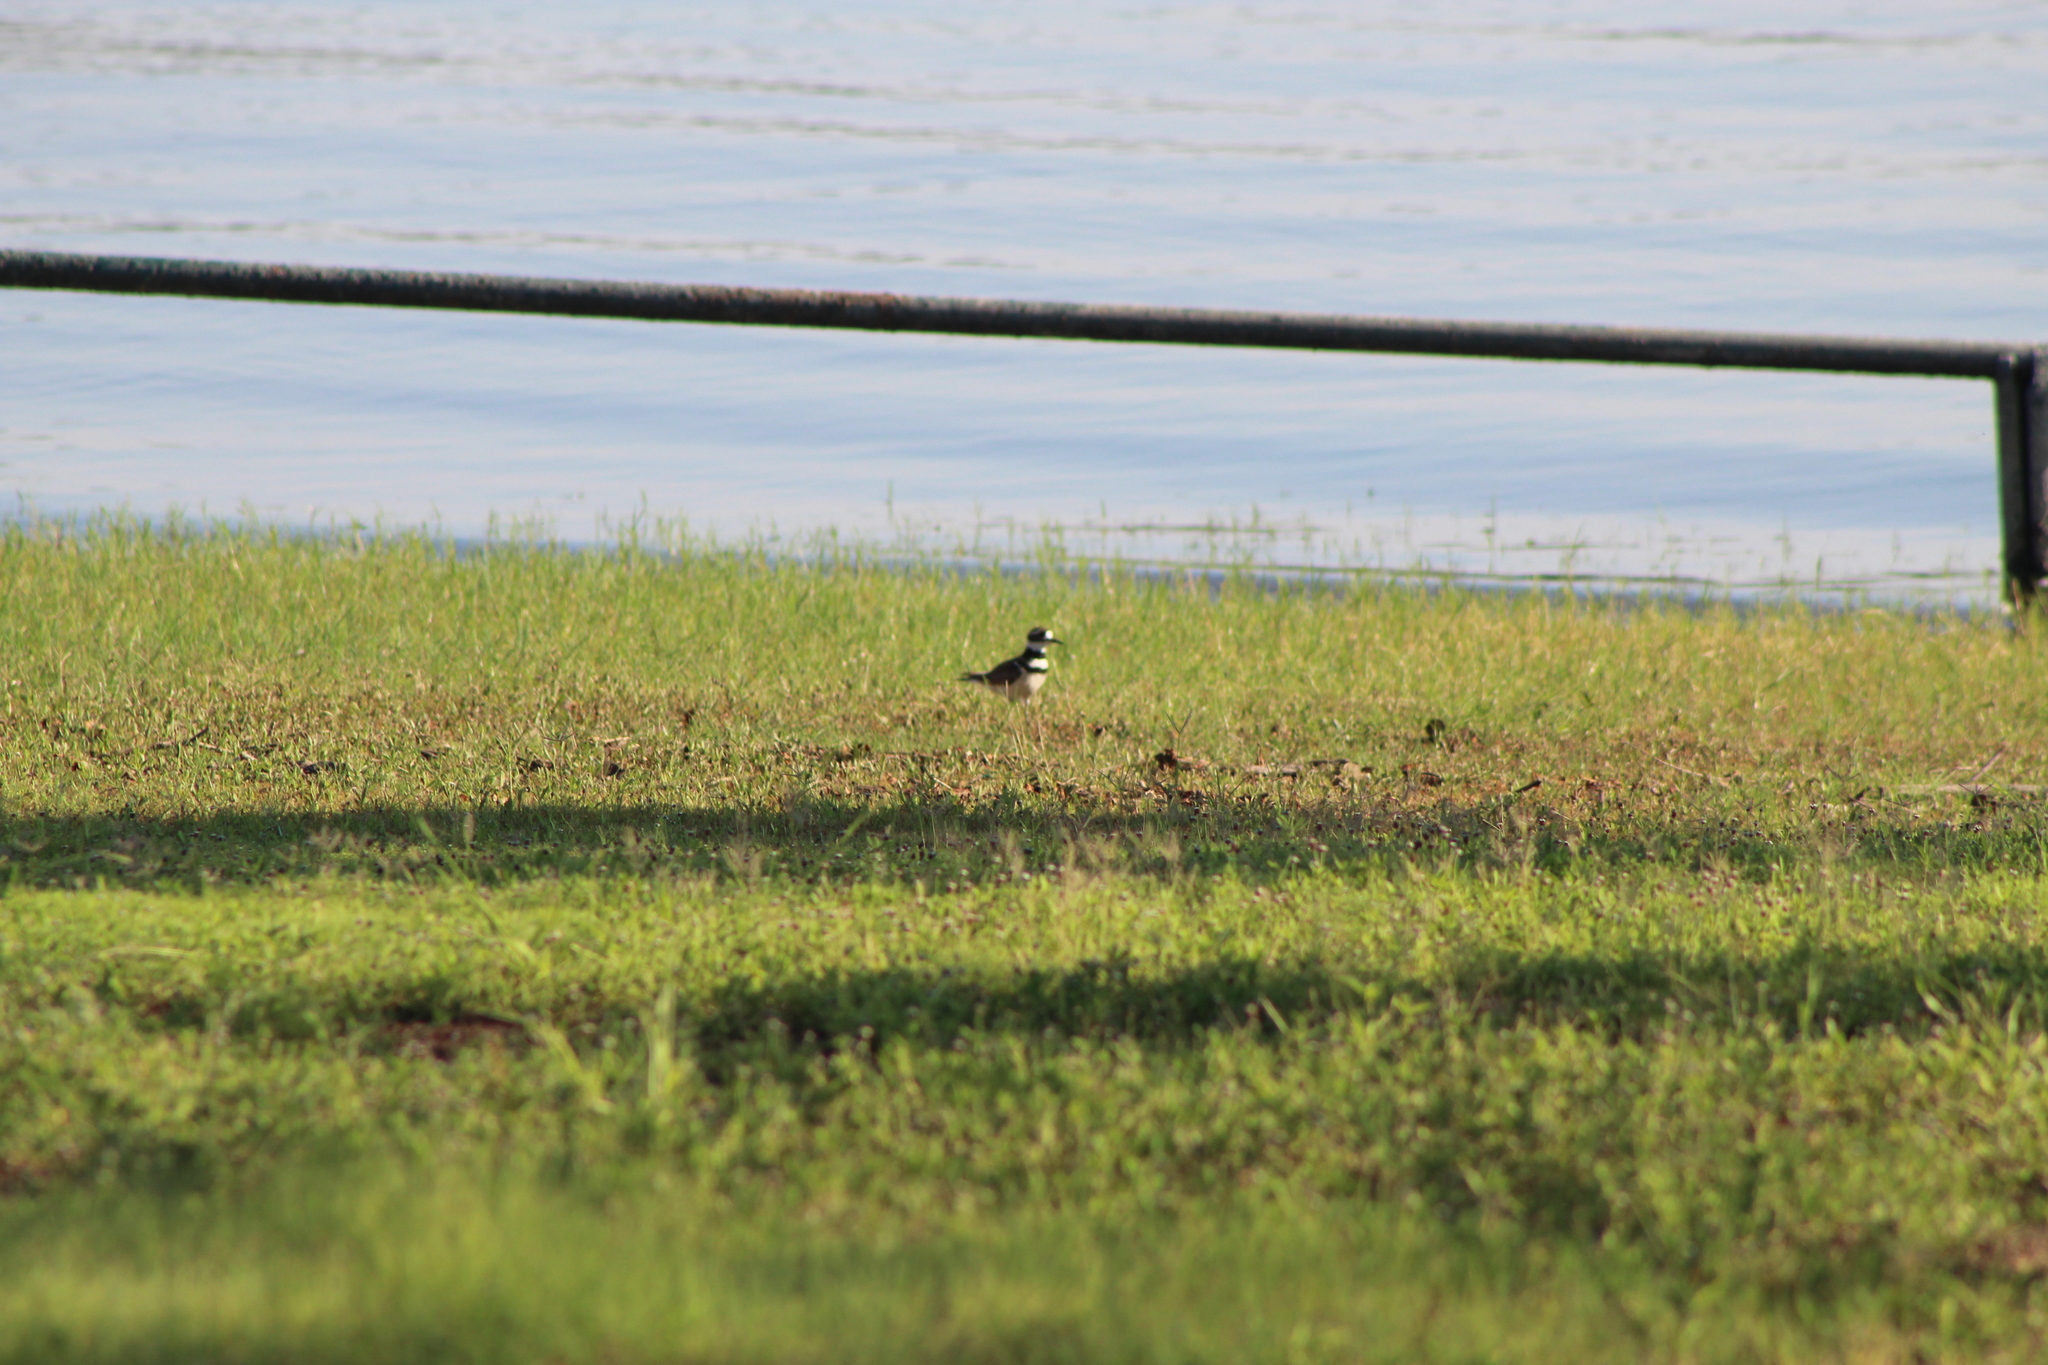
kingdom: Animalia
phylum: Chordata
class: Aves
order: Charadriiformes
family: Charadriidae
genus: Charadrius
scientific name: Charadrius vociferus
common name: Killdeer
